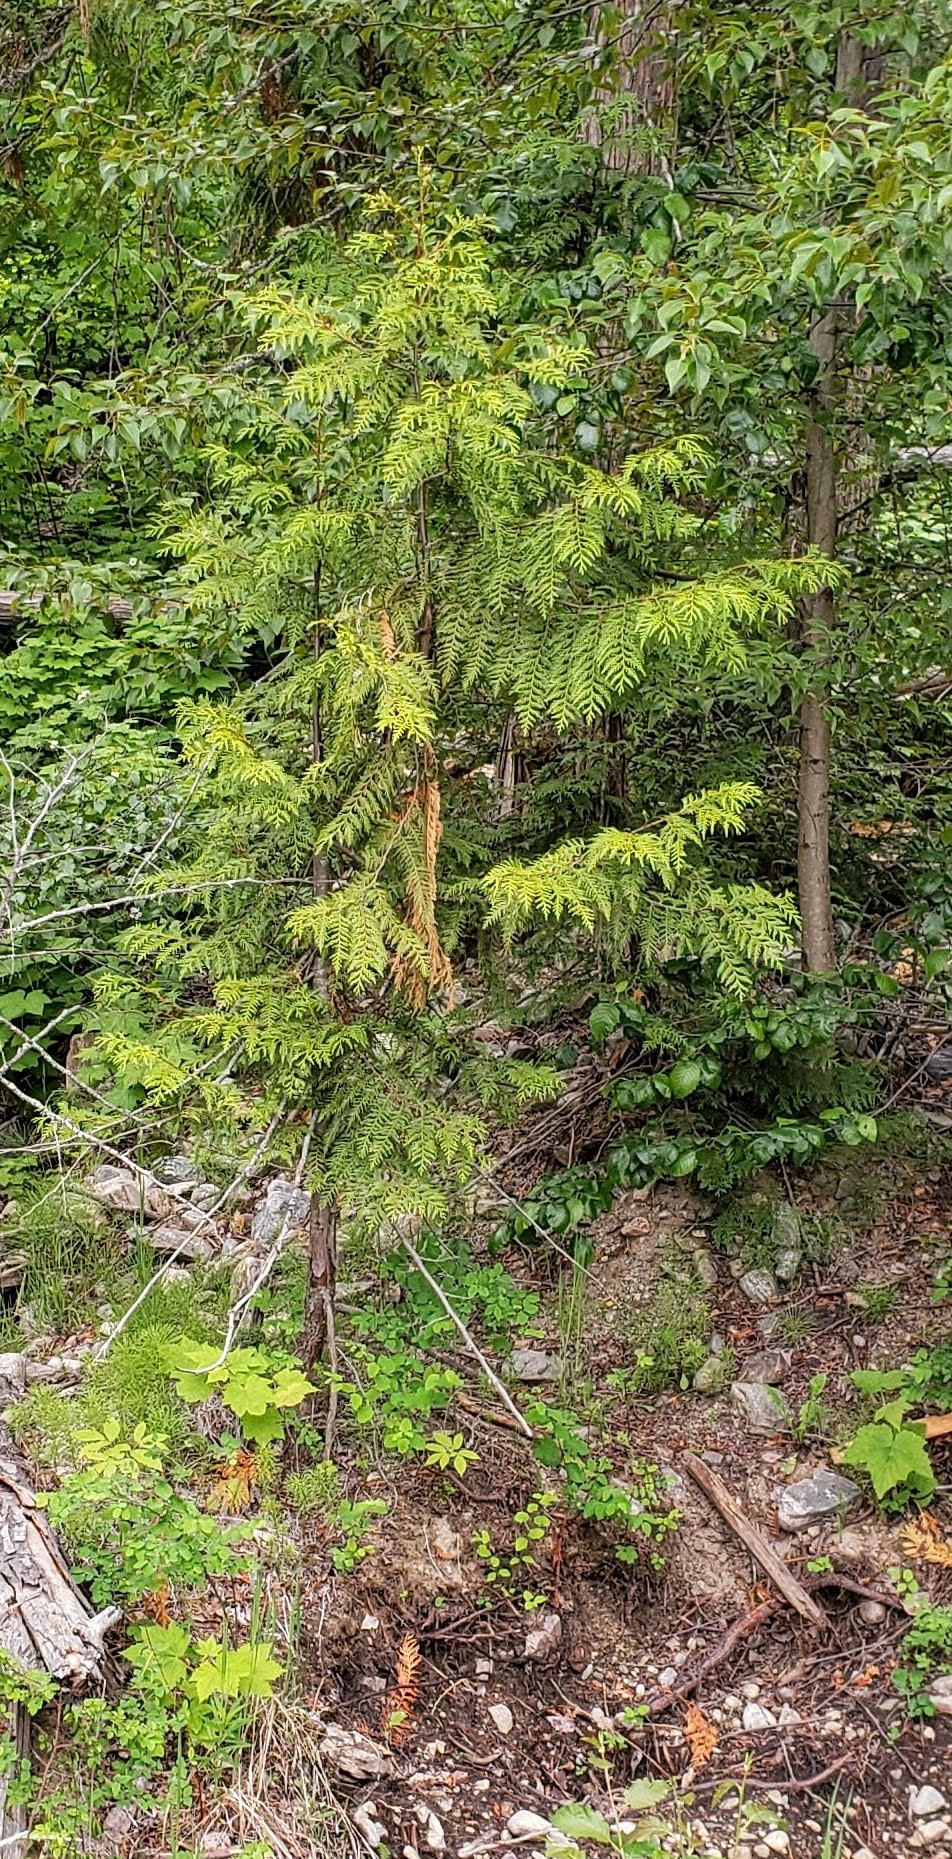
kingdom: Plantae
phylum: Tracheophyta
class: Pinopsida
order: Pinales
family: Cupressaceae
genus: Thuja
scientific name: Thuja plicata
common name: Western red-cedar
